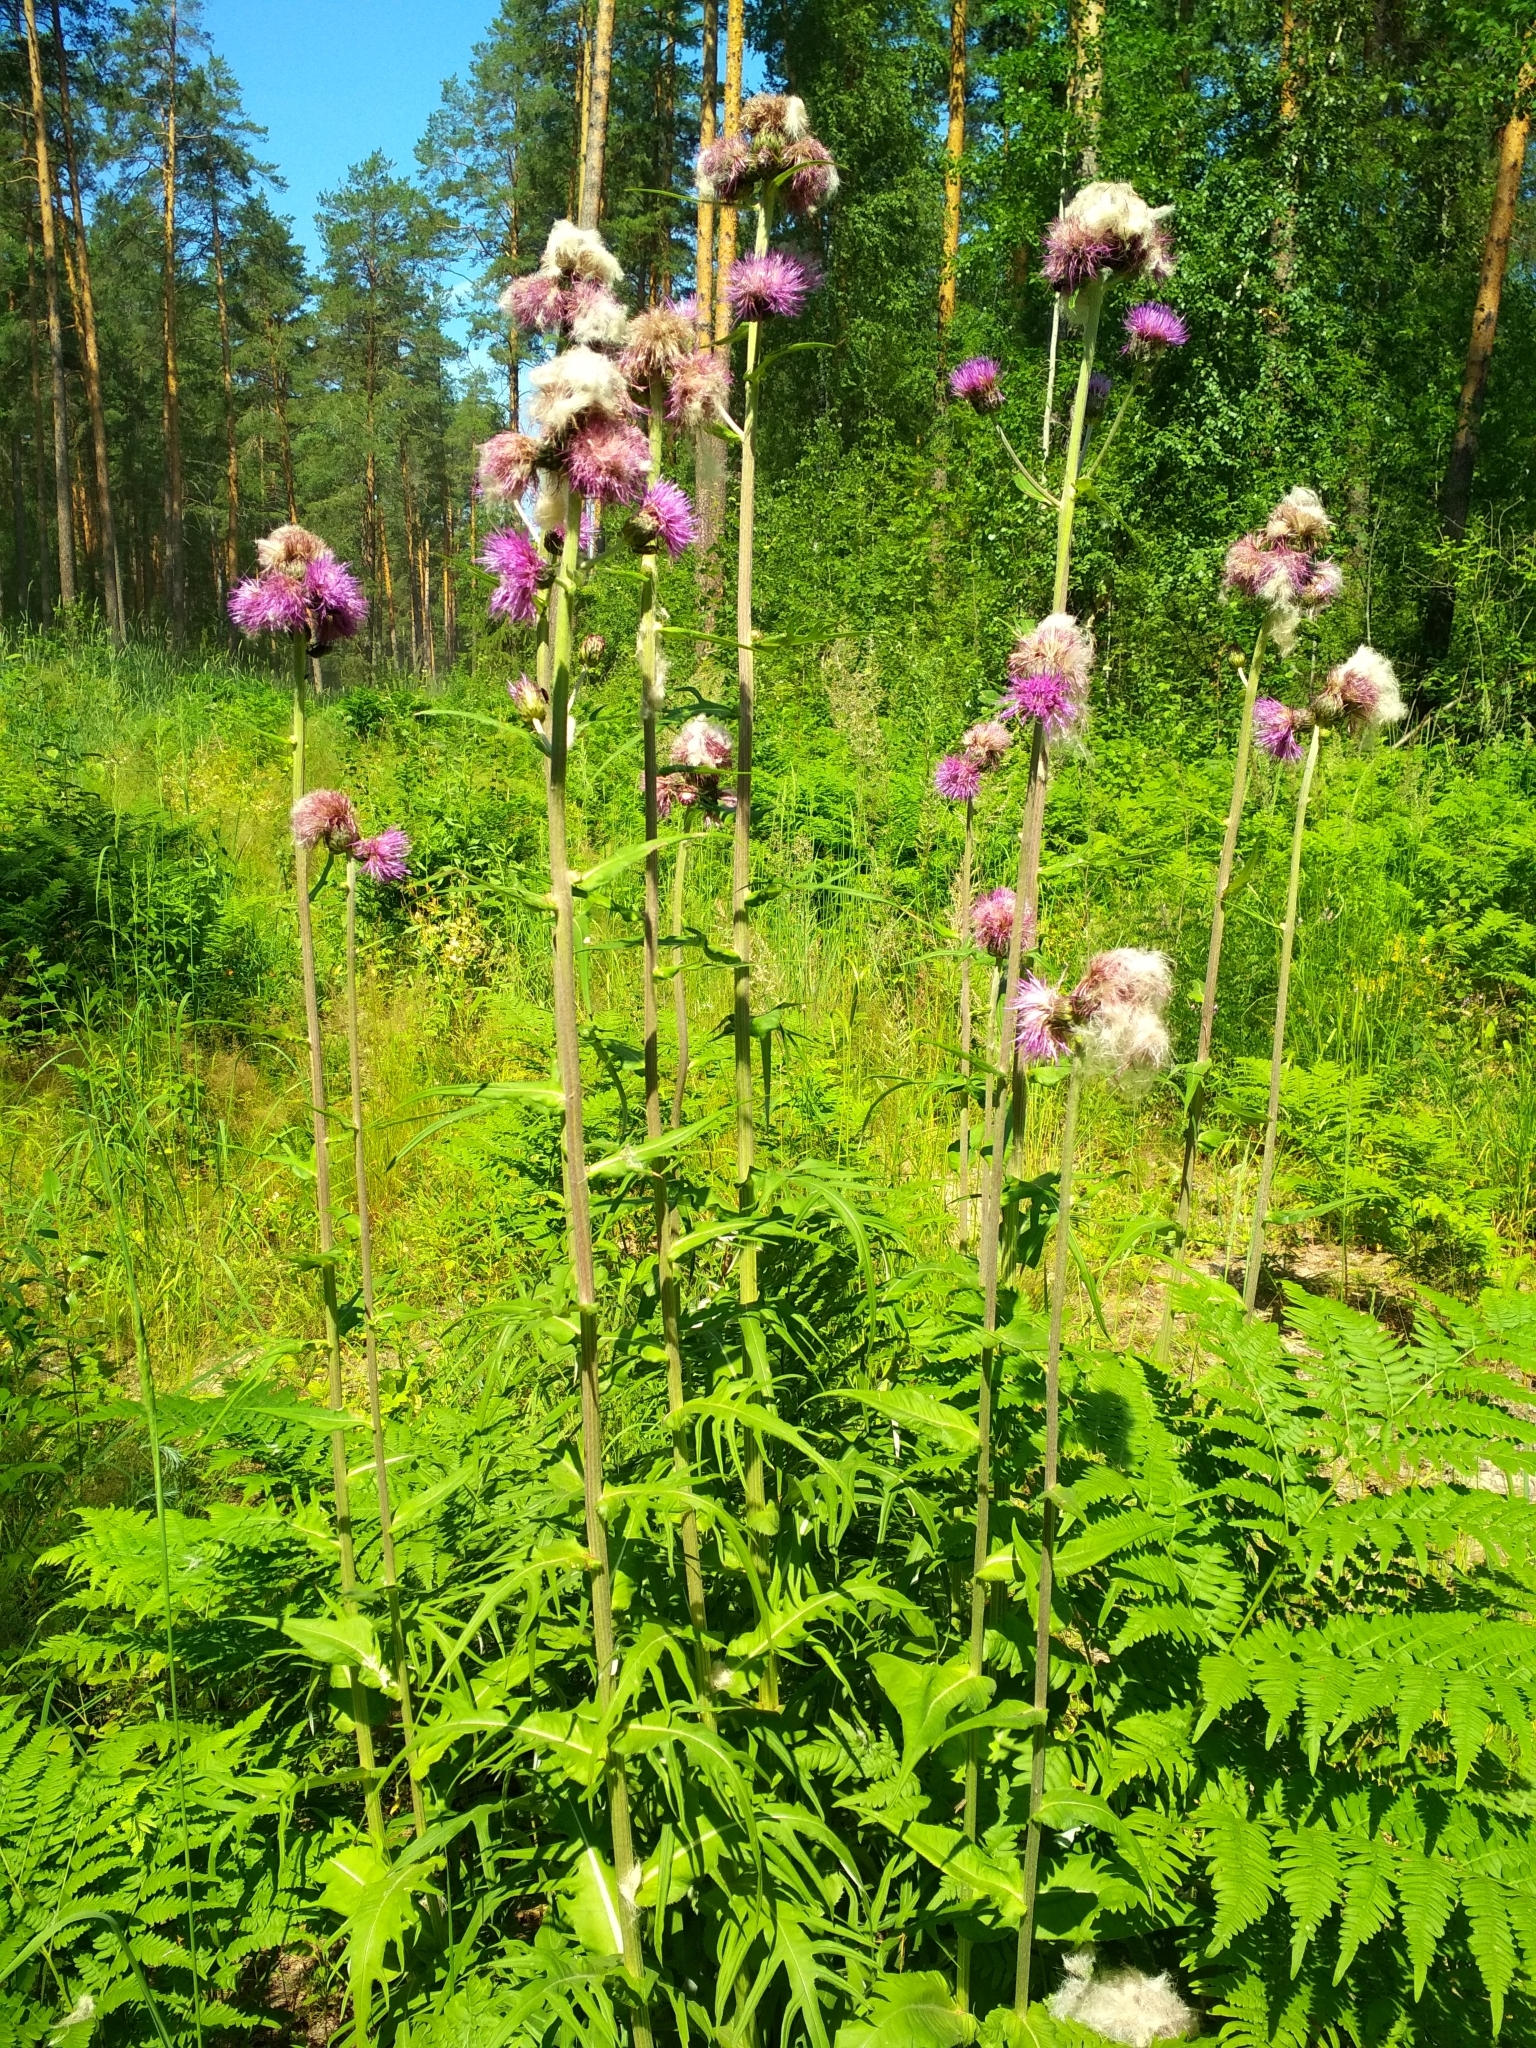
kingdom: Plantae
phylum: Tracheophyta
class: Magnoliopsida
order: Asterales
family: Asteraceae
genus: Cirsium
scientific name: Cirsium heterophyllum
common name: Melancholy thistle
